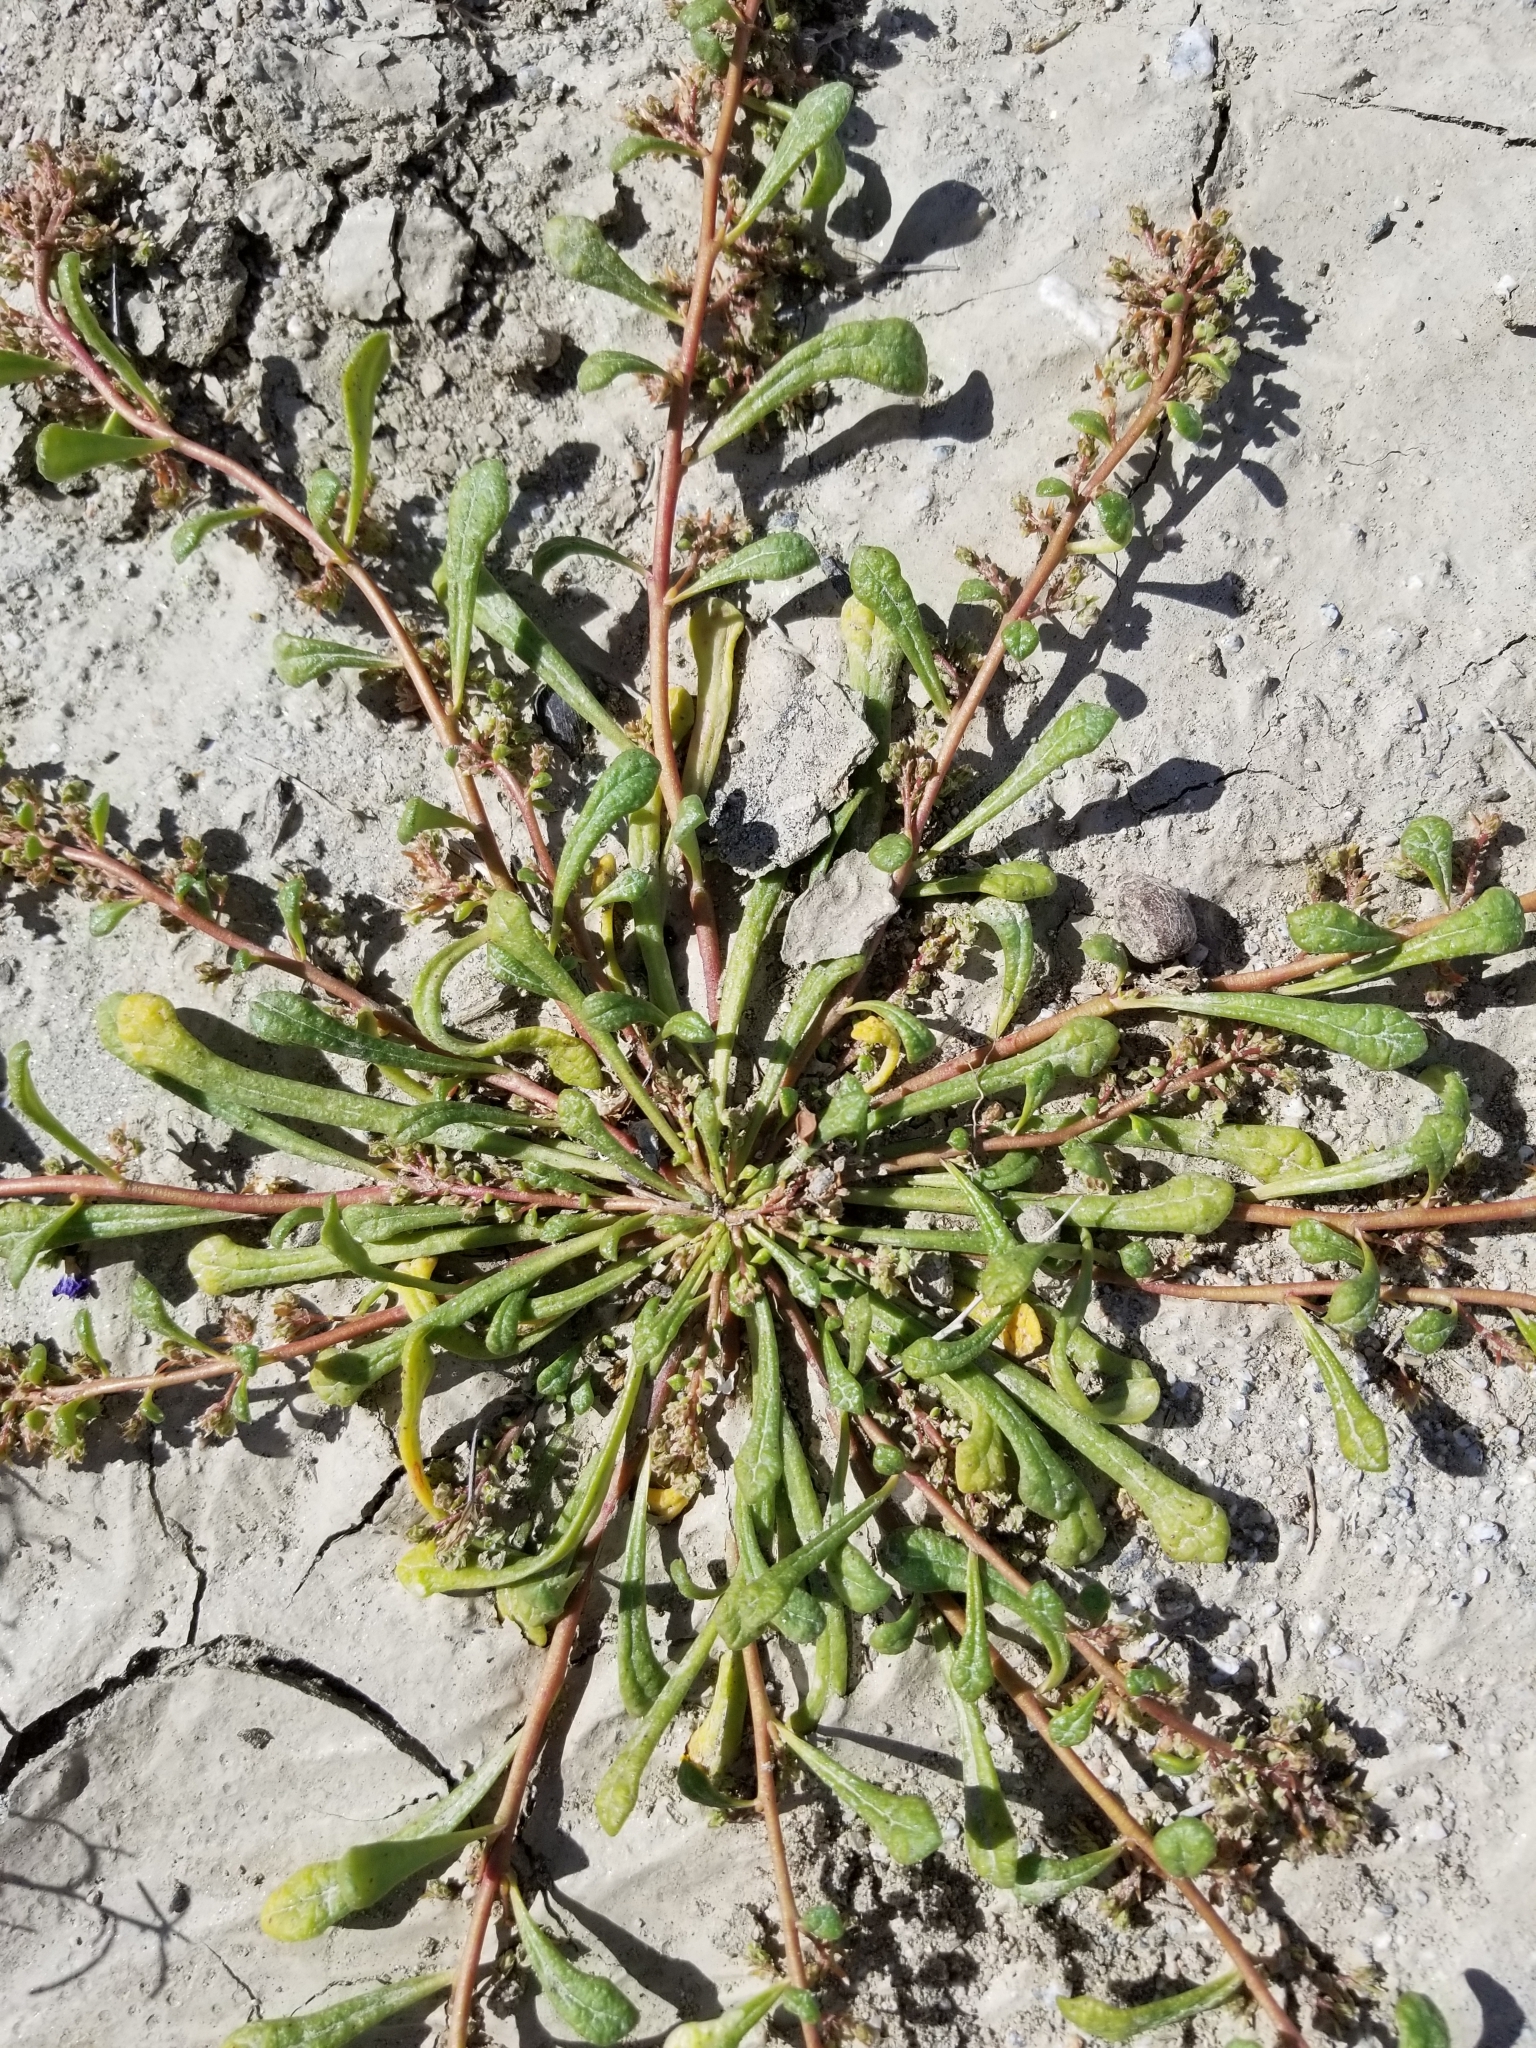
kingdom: Plantae
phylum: Tracheophyta
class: Magnoliopsida
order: Caryophyllales
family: Montiaceae
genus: Calyptridium
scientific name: Calyptridium monandrum
